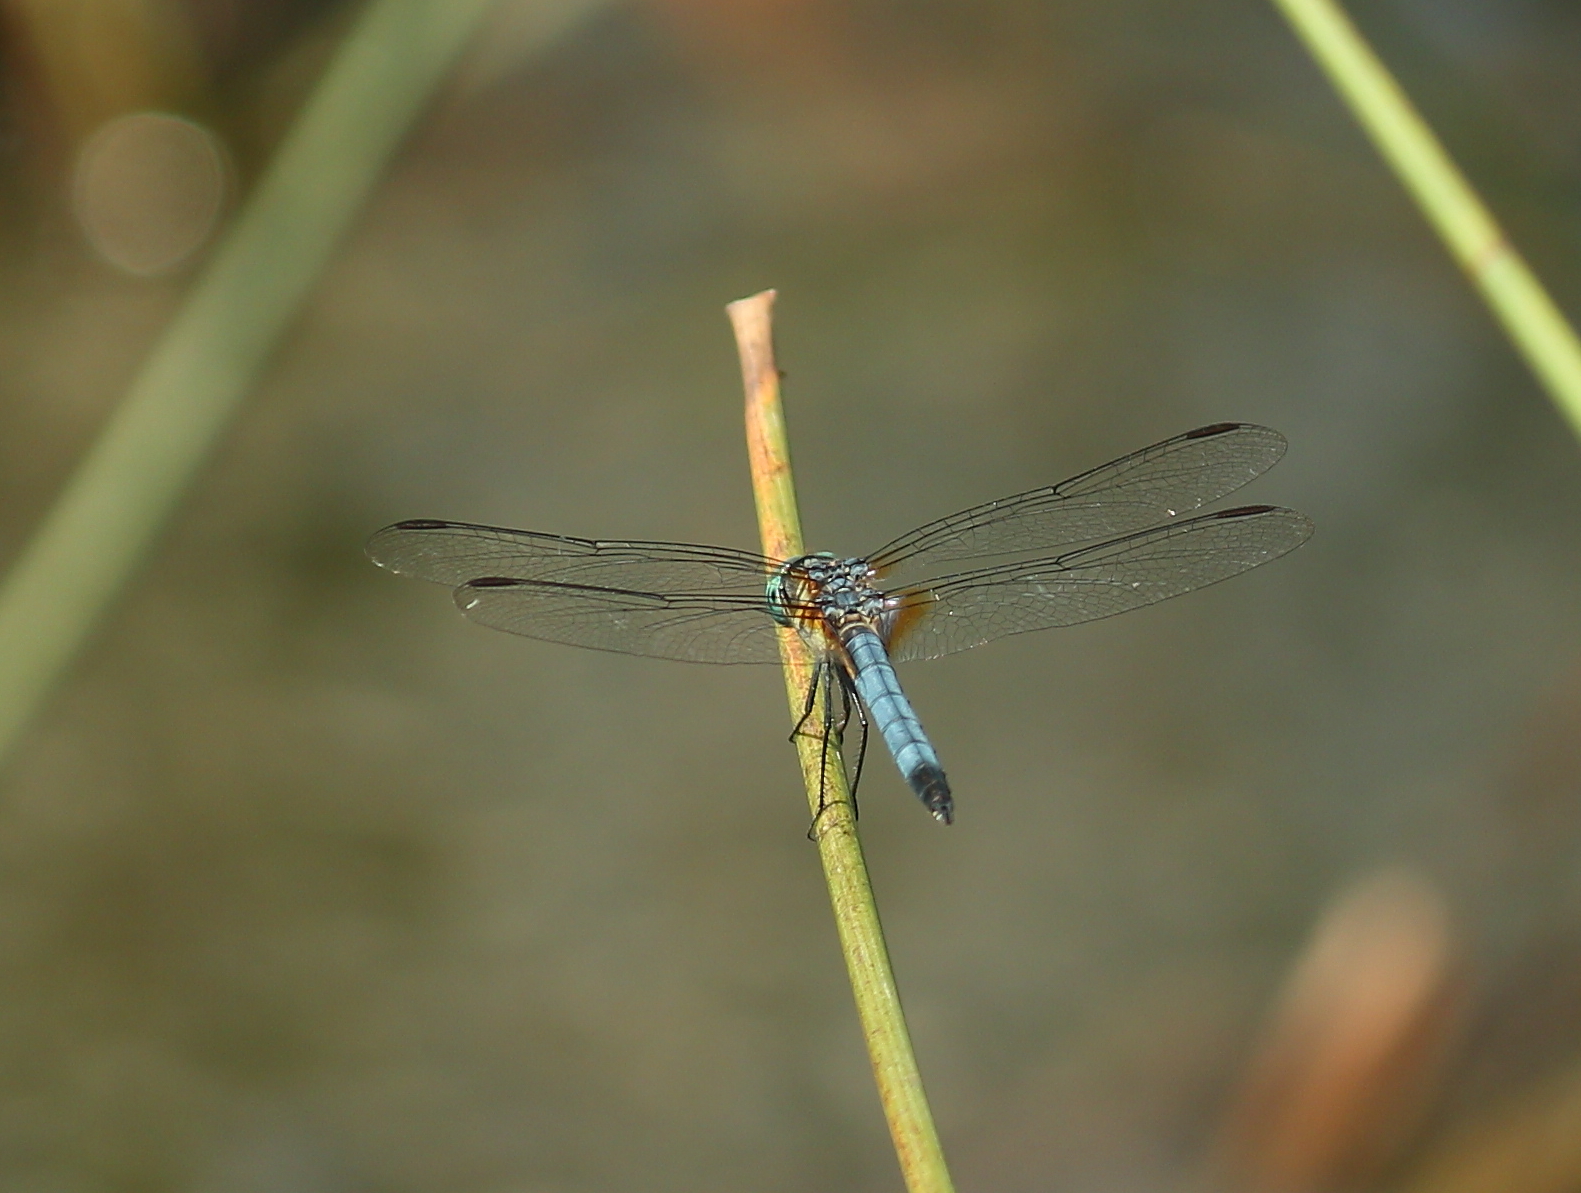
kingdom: Animalia
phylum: Arthropoda
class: Insecta
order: Odonata
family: Libellulidae
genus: Pachydiplax
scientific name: Pachydiplax longipennis
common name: Blue dasher
